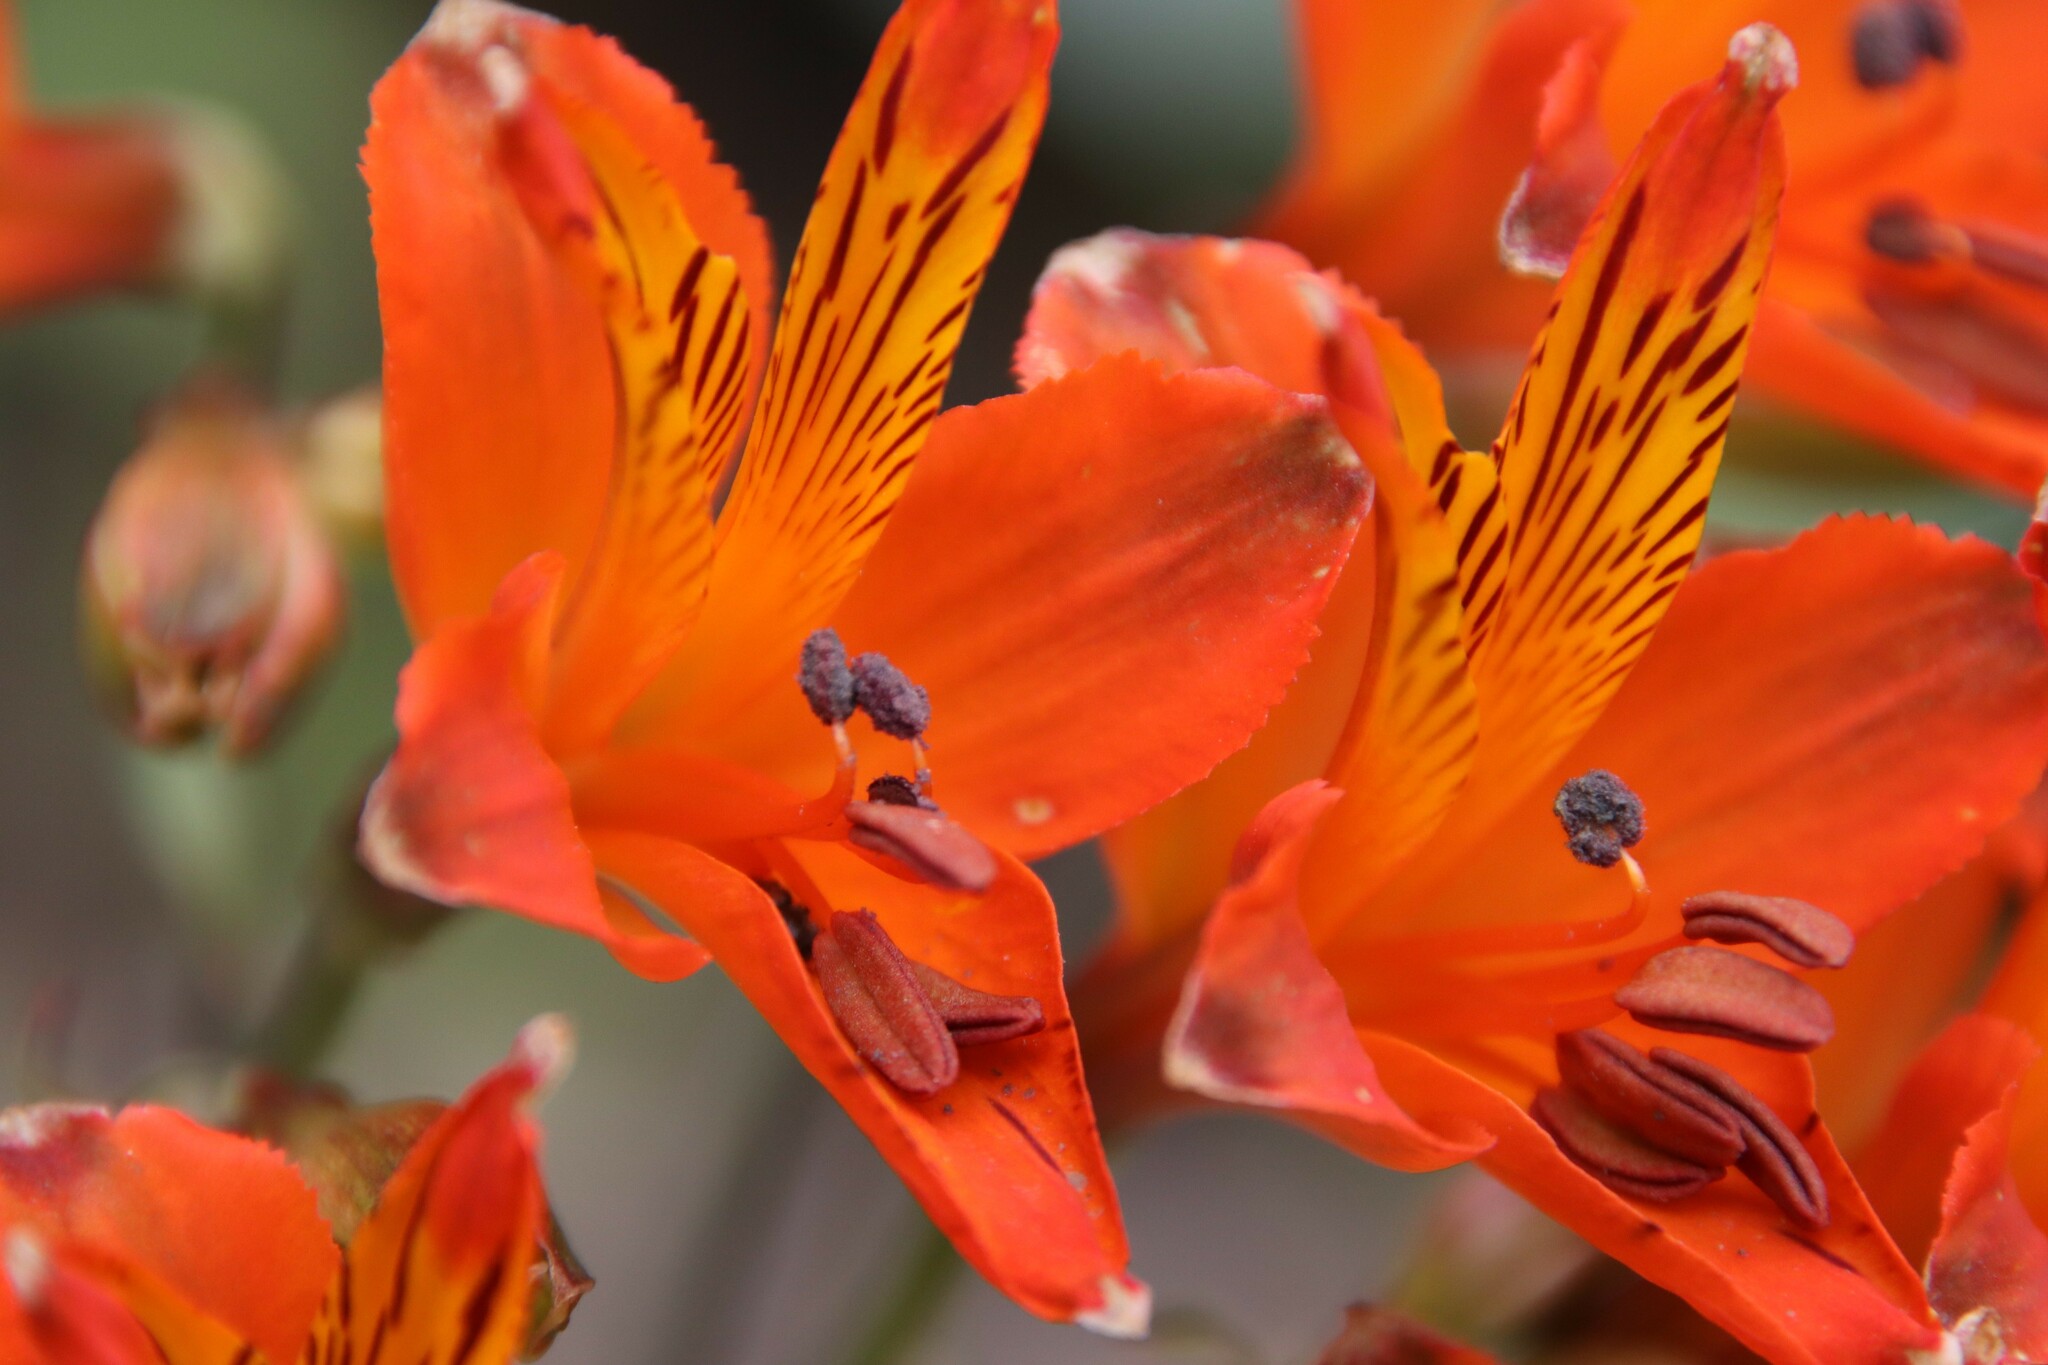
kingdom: Plantae
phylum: Tracheophyta
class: Liliopsida
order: Liliales
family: Alstroemeriaceae
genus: Alstroemeria
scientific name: Alstroemeria ligtu
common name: St. martin's-flower
